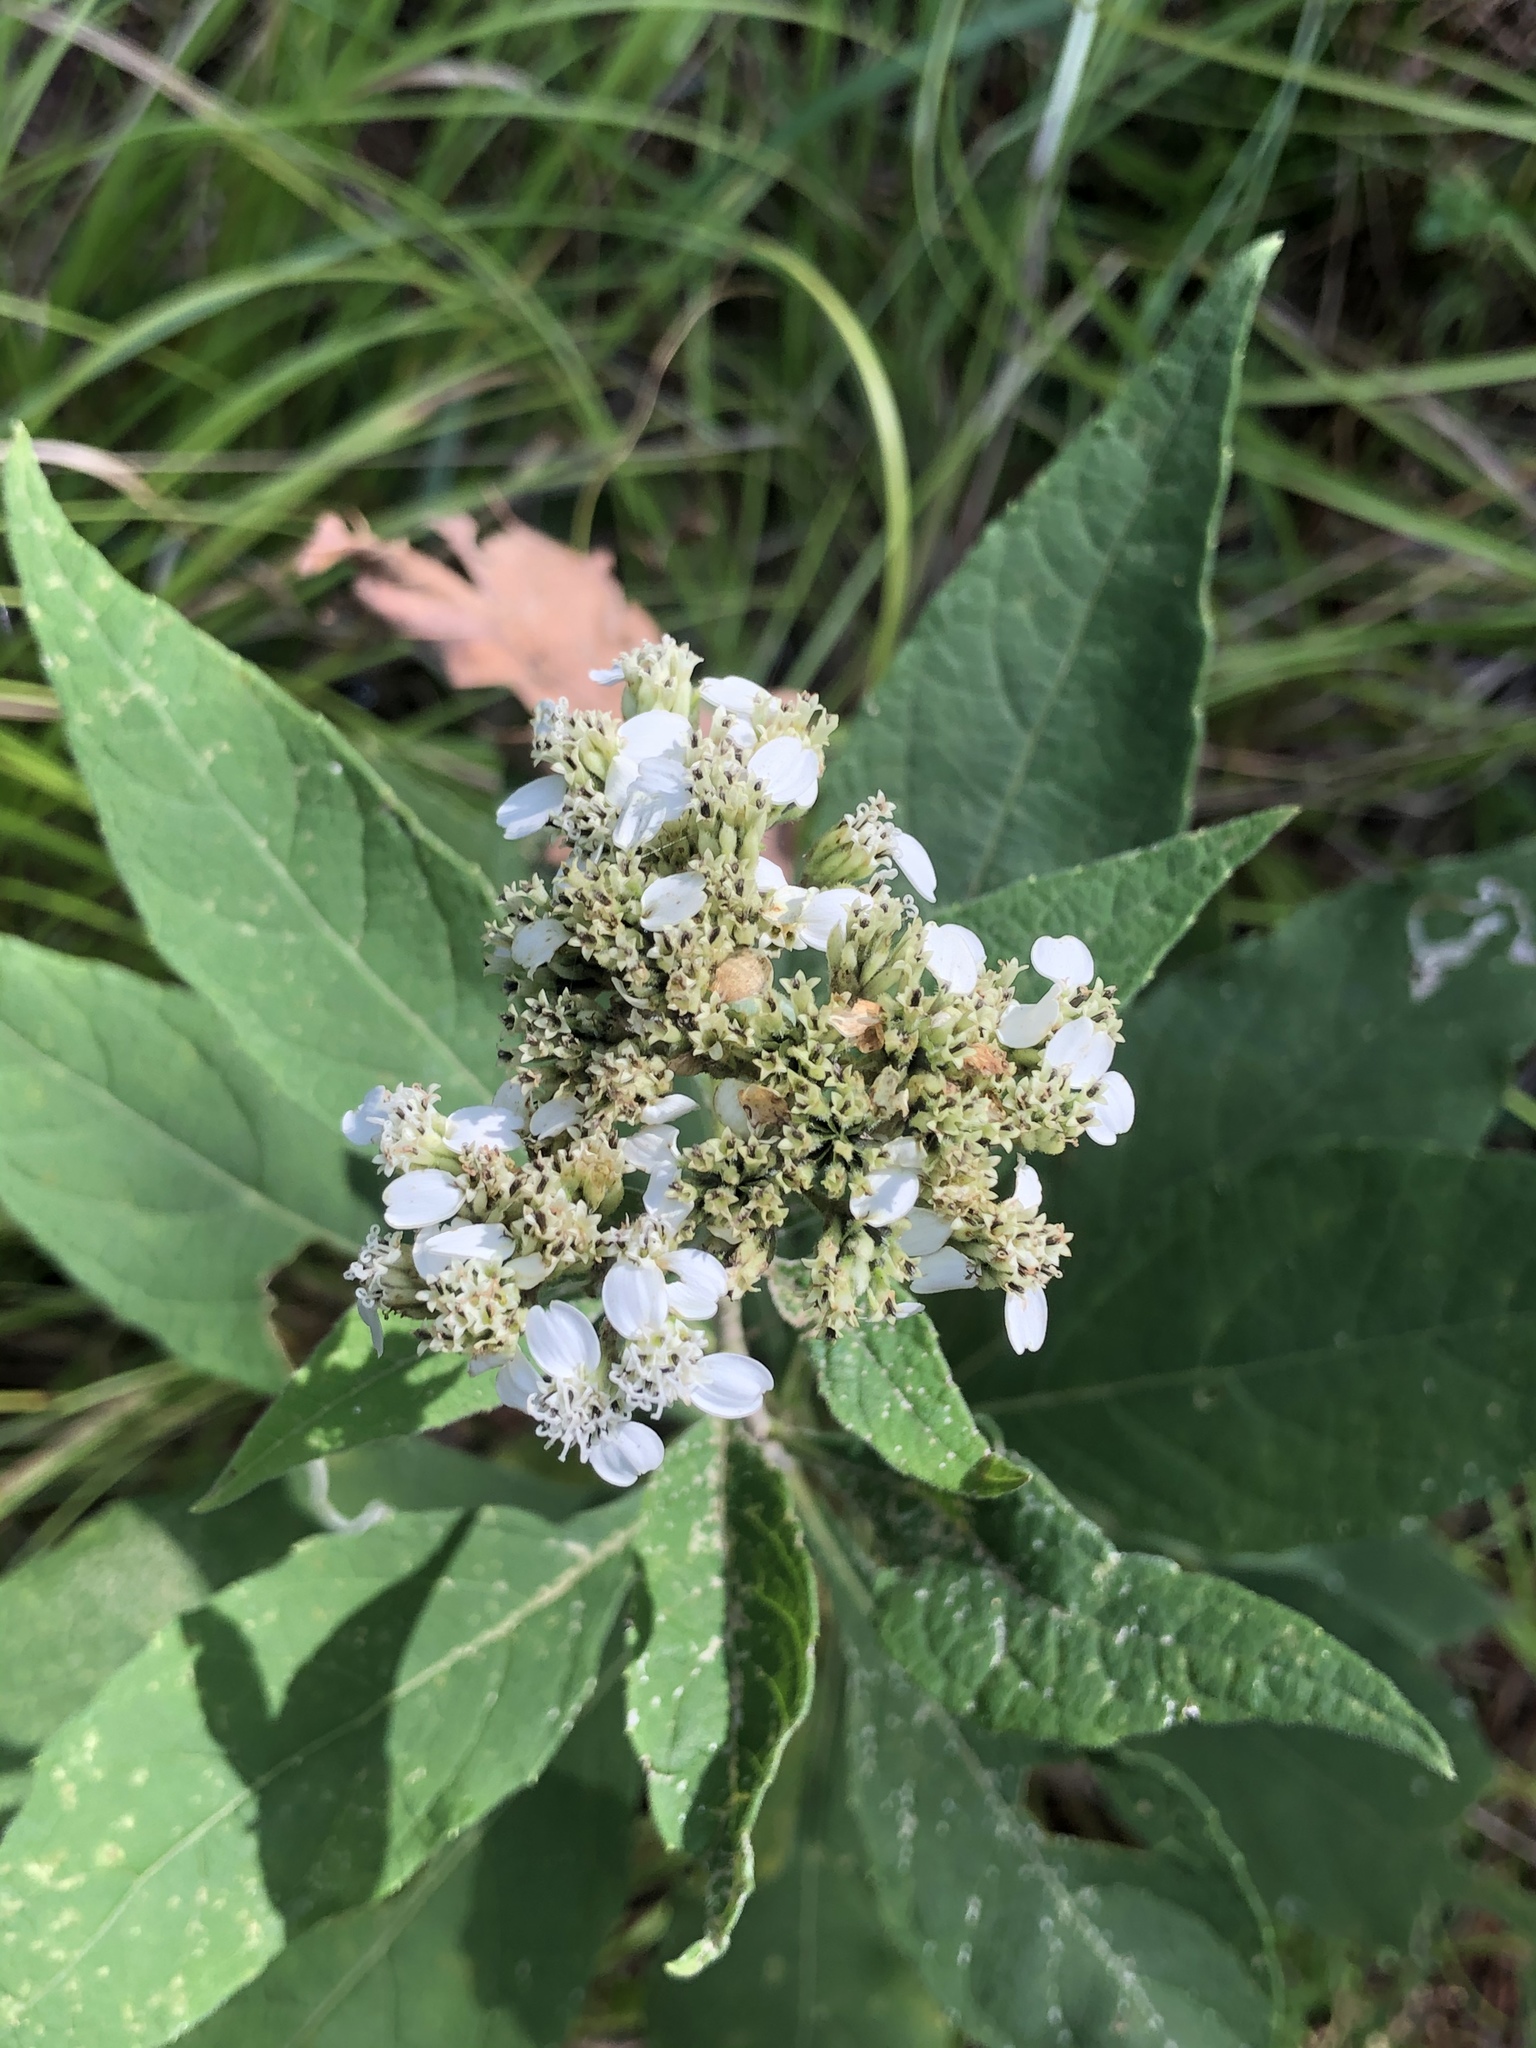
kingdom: Plantae
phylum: Tracheophyta
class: Magnoliopsida
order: Asterales
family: Asteraceae
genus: Verbesina
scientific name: Verbesina virginica
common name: Frostweed
